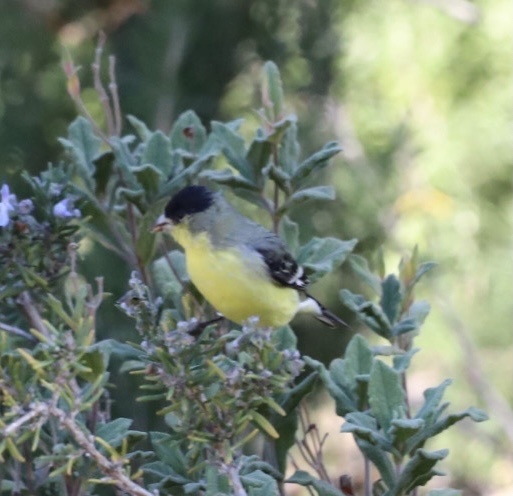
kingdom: Animalia
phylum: Chordata
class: Aves
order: Passeriformes
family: Fringillidae
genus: Spinus
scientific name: Spinus psaltria
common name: Lesser goldfinch
